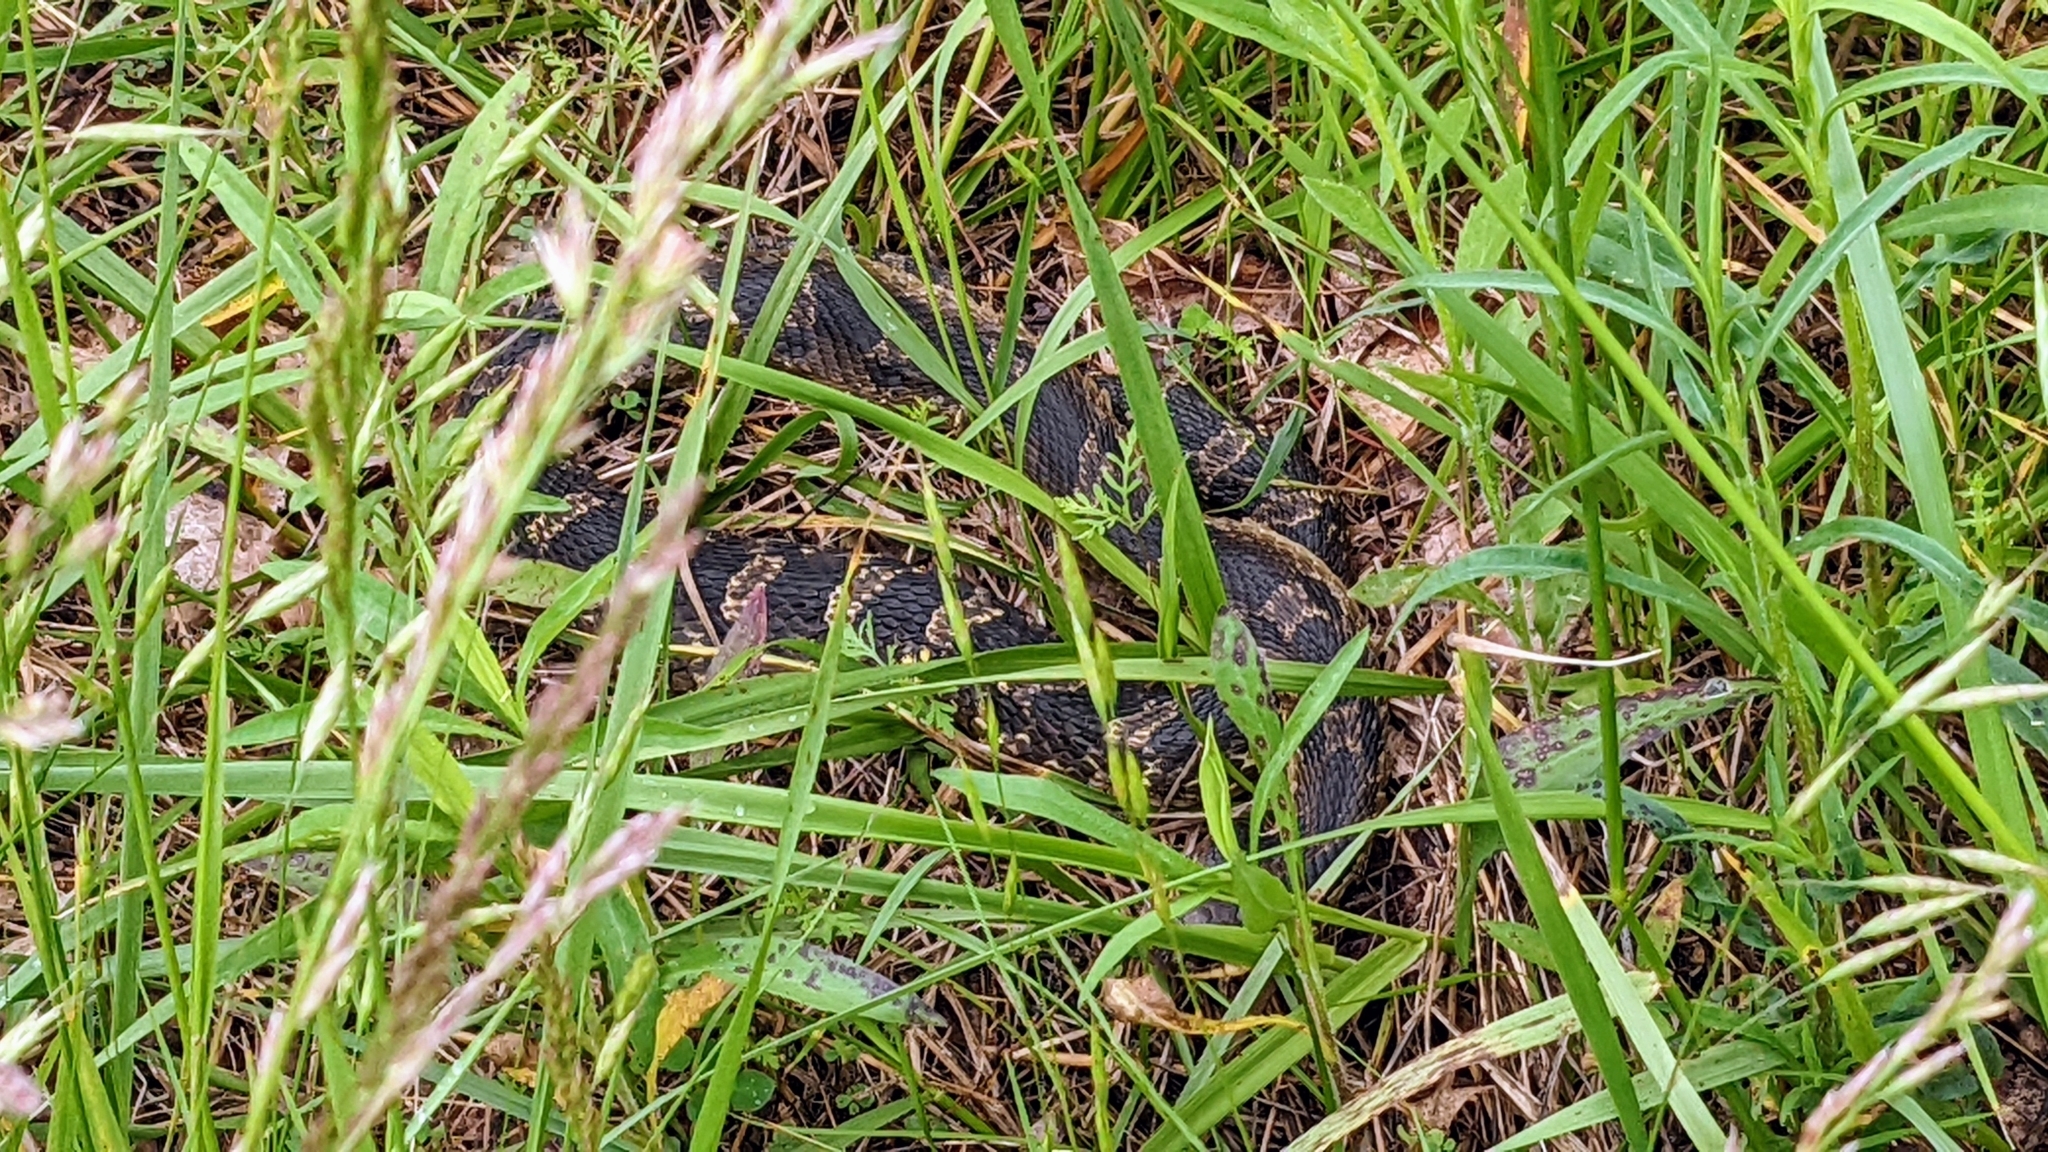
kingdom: Animalia
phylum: Chordata
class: Squamata
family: Colubridae
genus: Heterodon
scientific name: Heterodon platirhinos
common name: Eastern hognose snake
